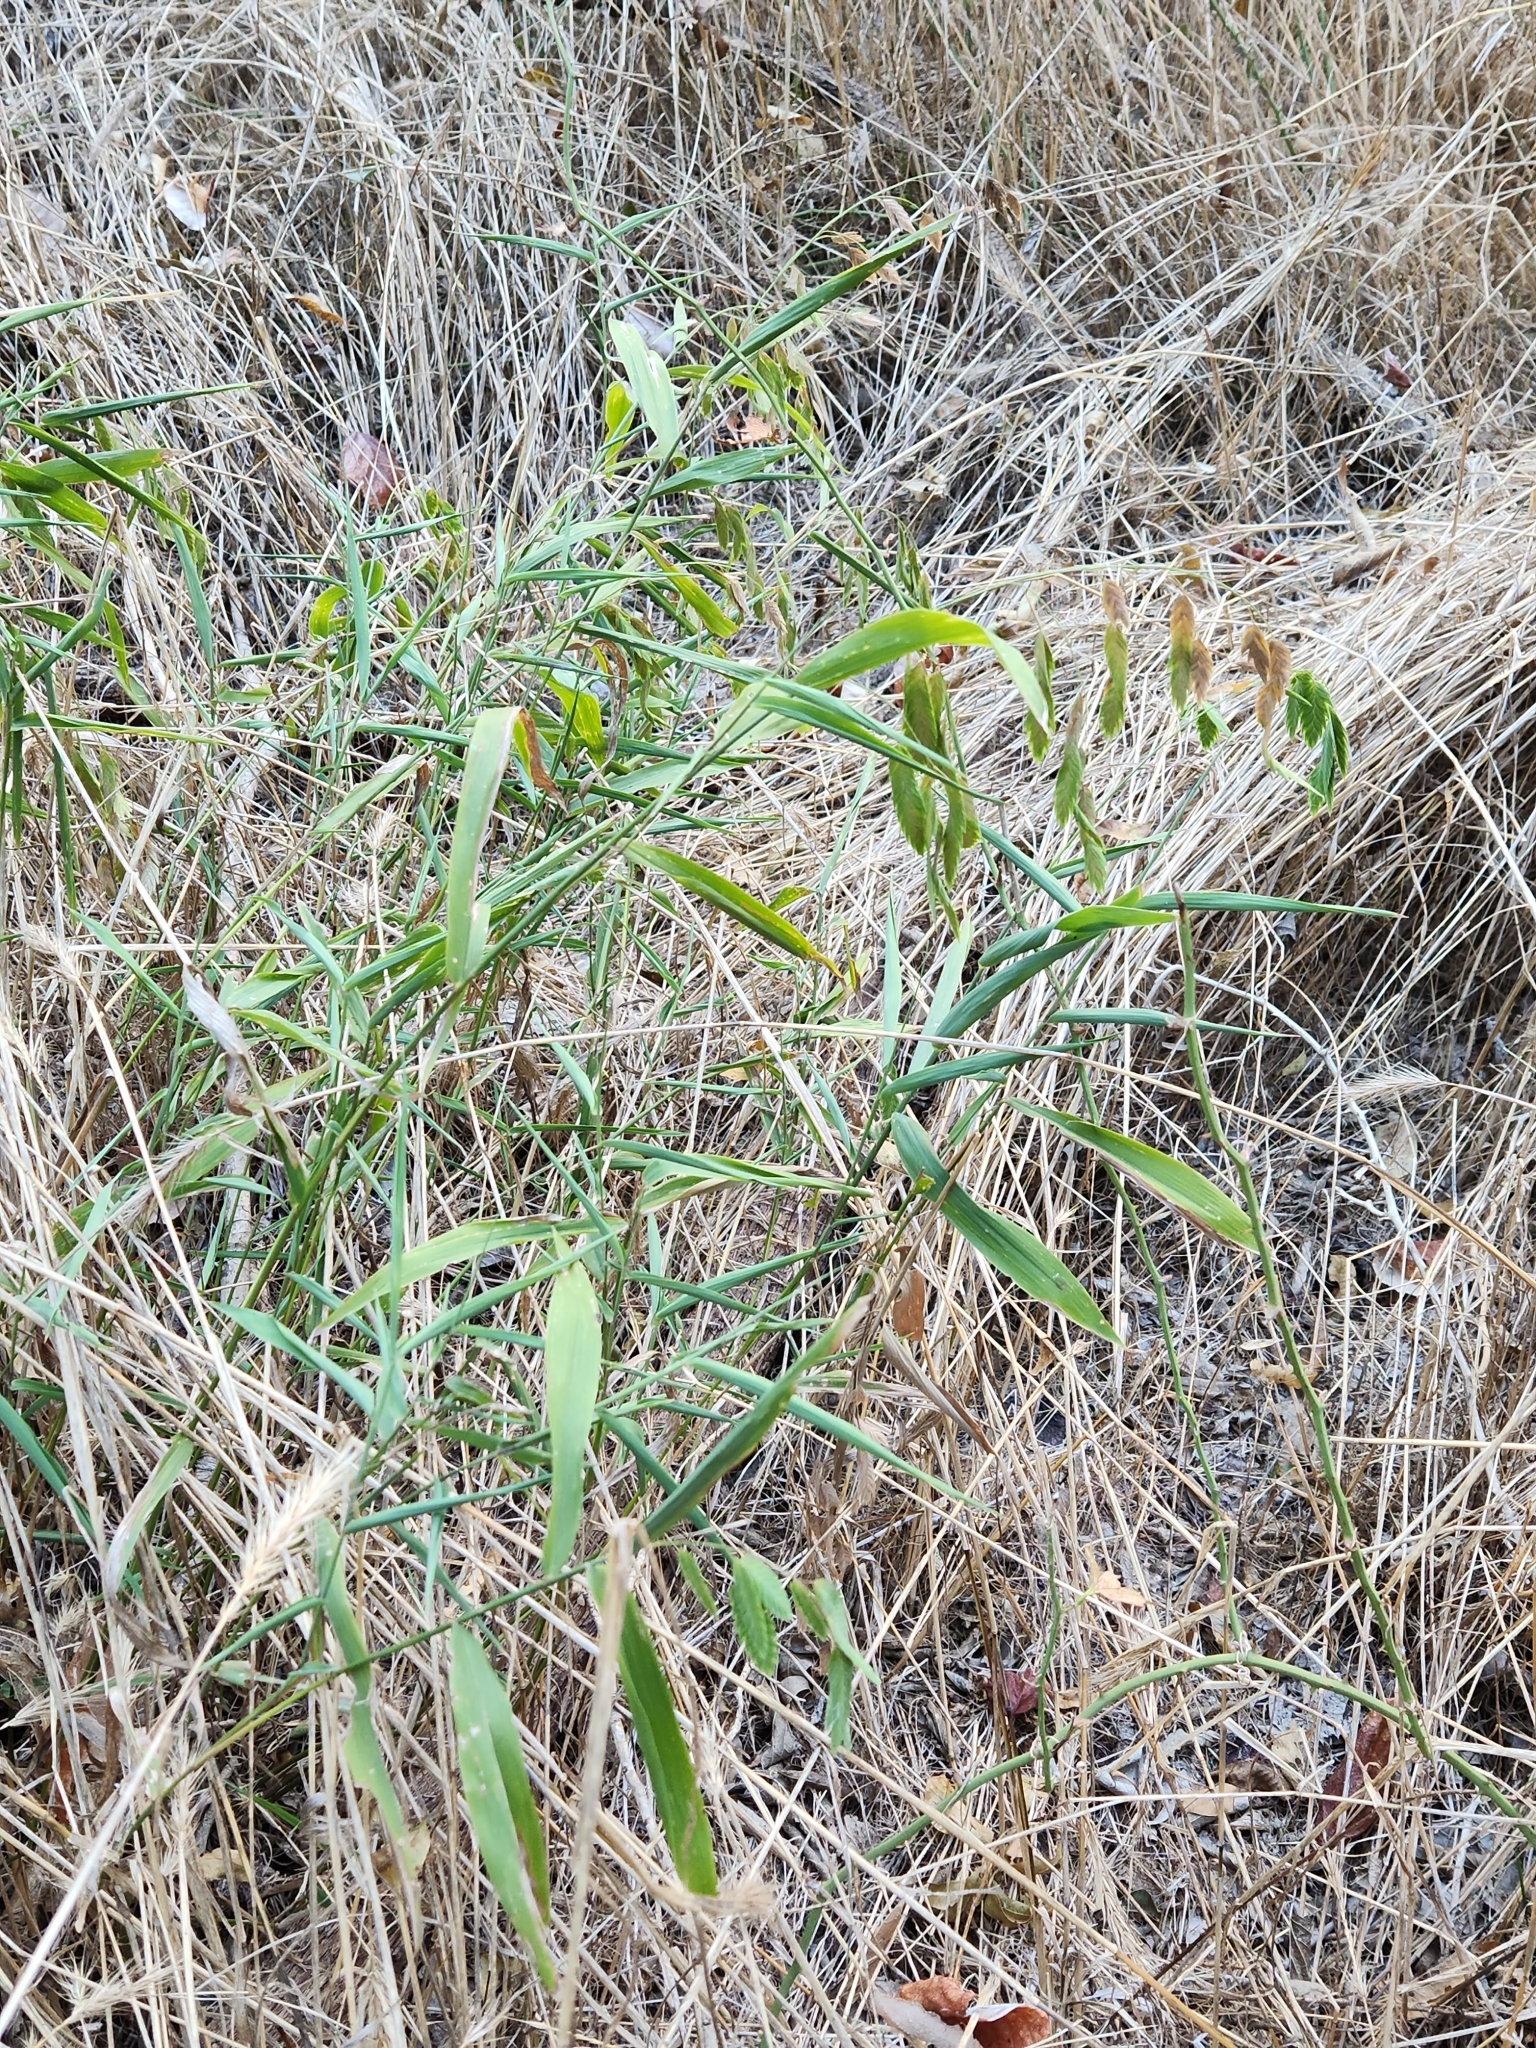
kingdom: Plantae
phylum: Tracheophyta
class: Liliopsida
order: Poales
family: Poaceae
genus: Chasmanthium
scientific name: Chasmanthium latifolium
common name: Broad-leaved chasmanthium
